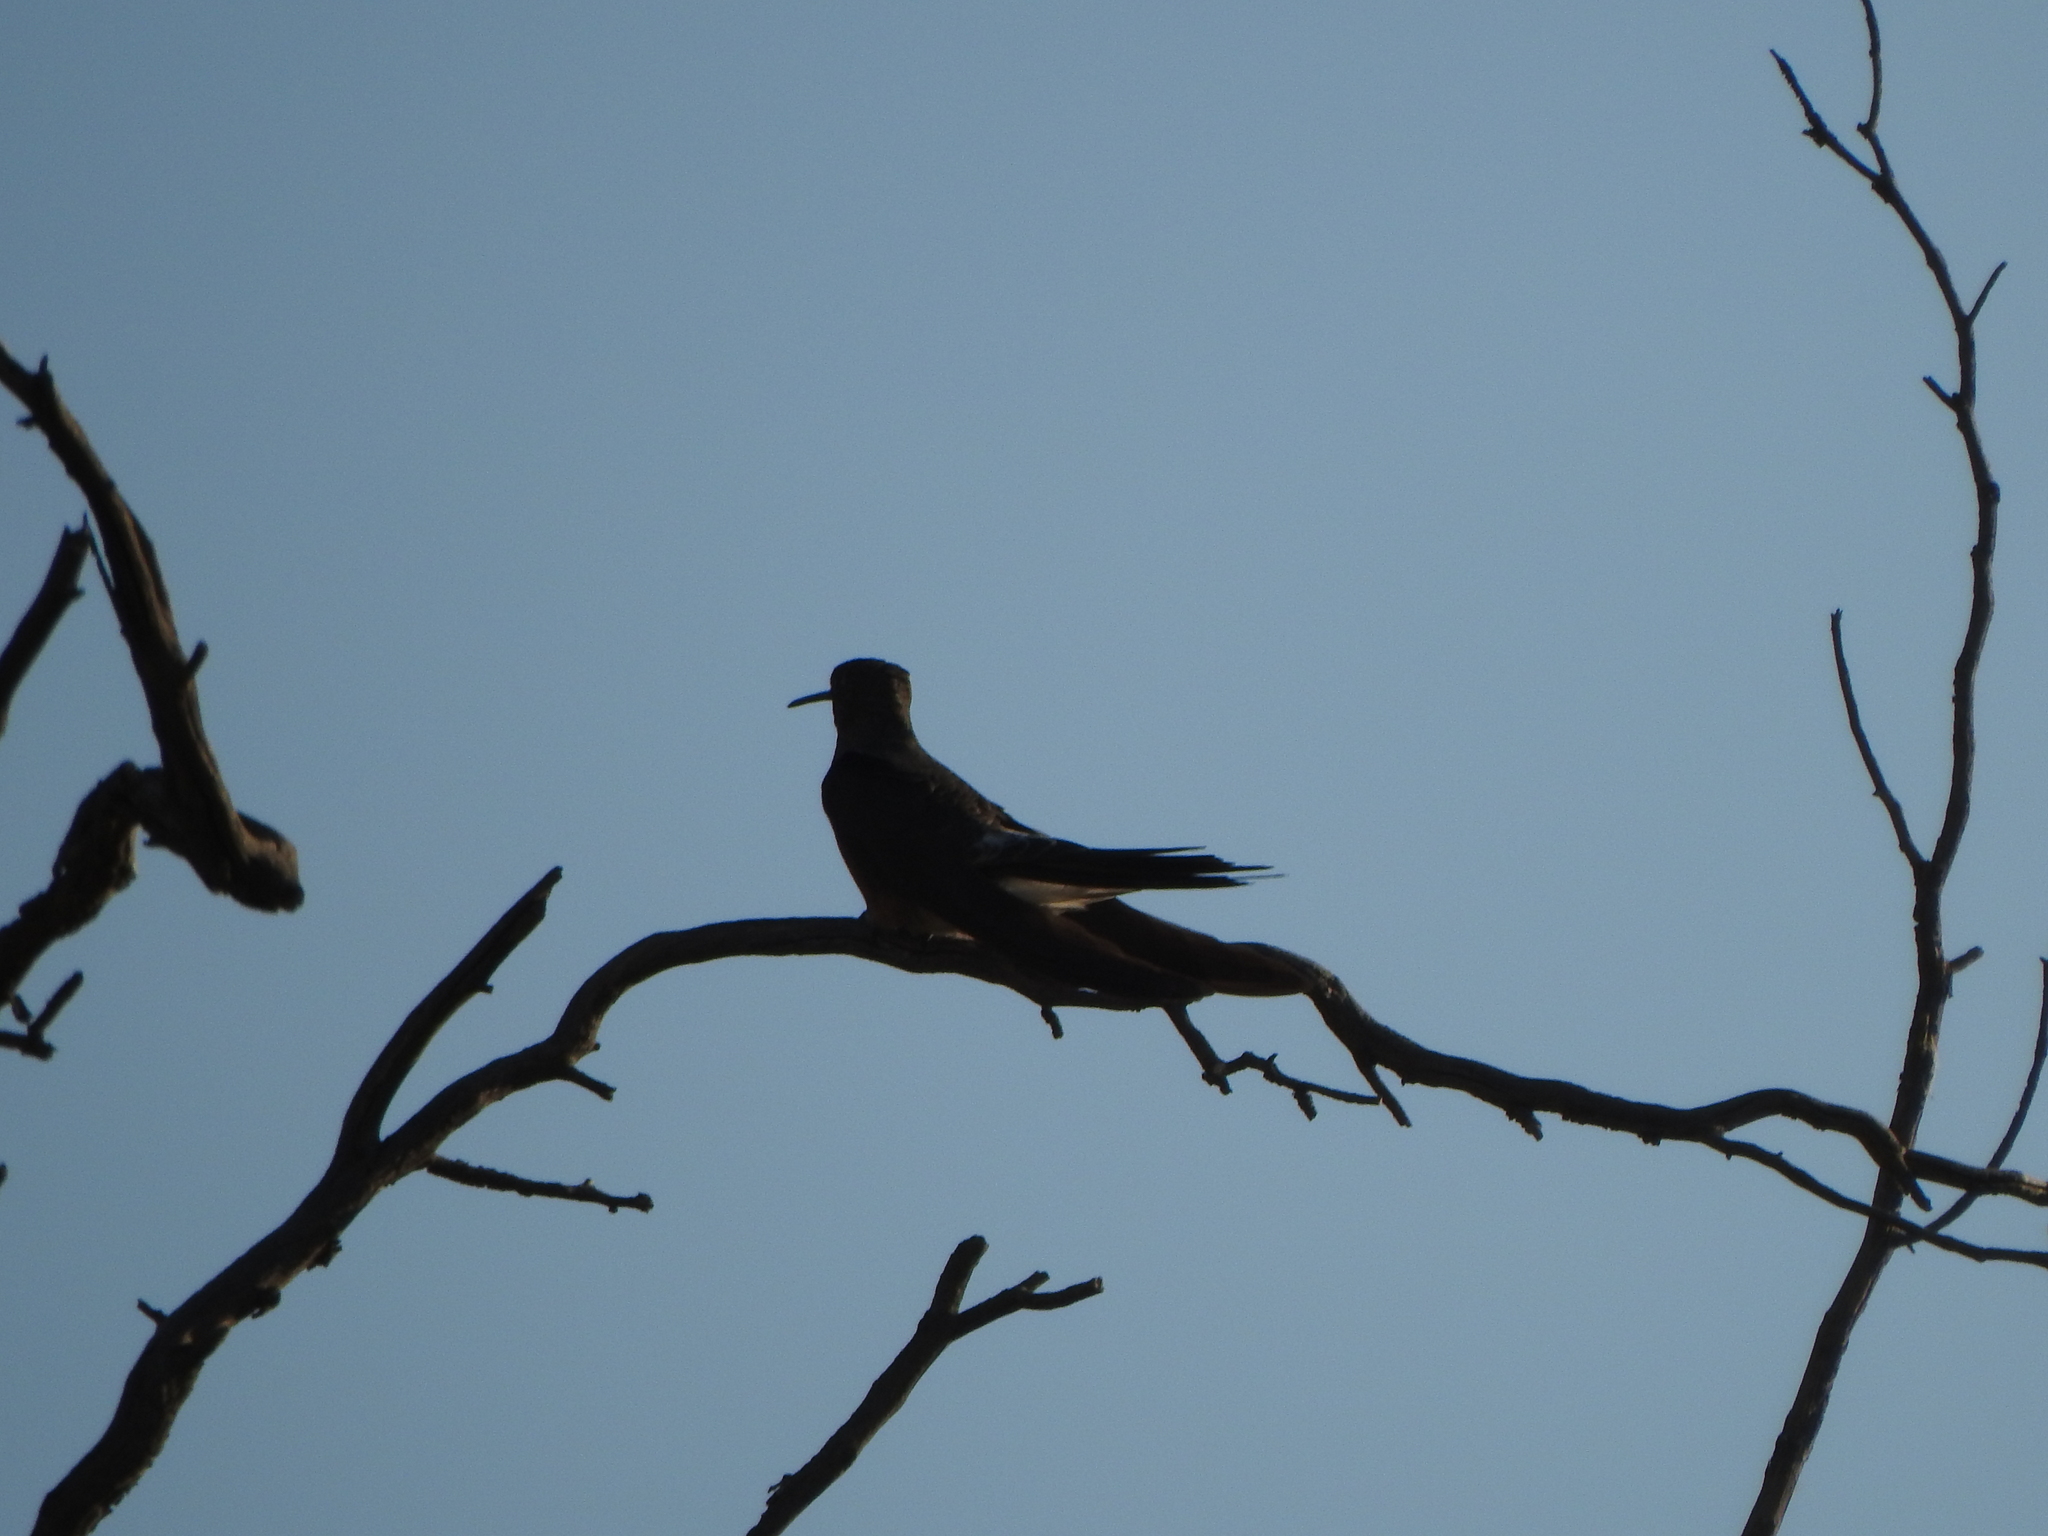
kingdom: Animalia
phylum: Chordata
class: Aves
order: Apodiformes
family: Trochilidae
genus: Patagona
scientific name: Patagona gigas
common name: Giant hummingbird
